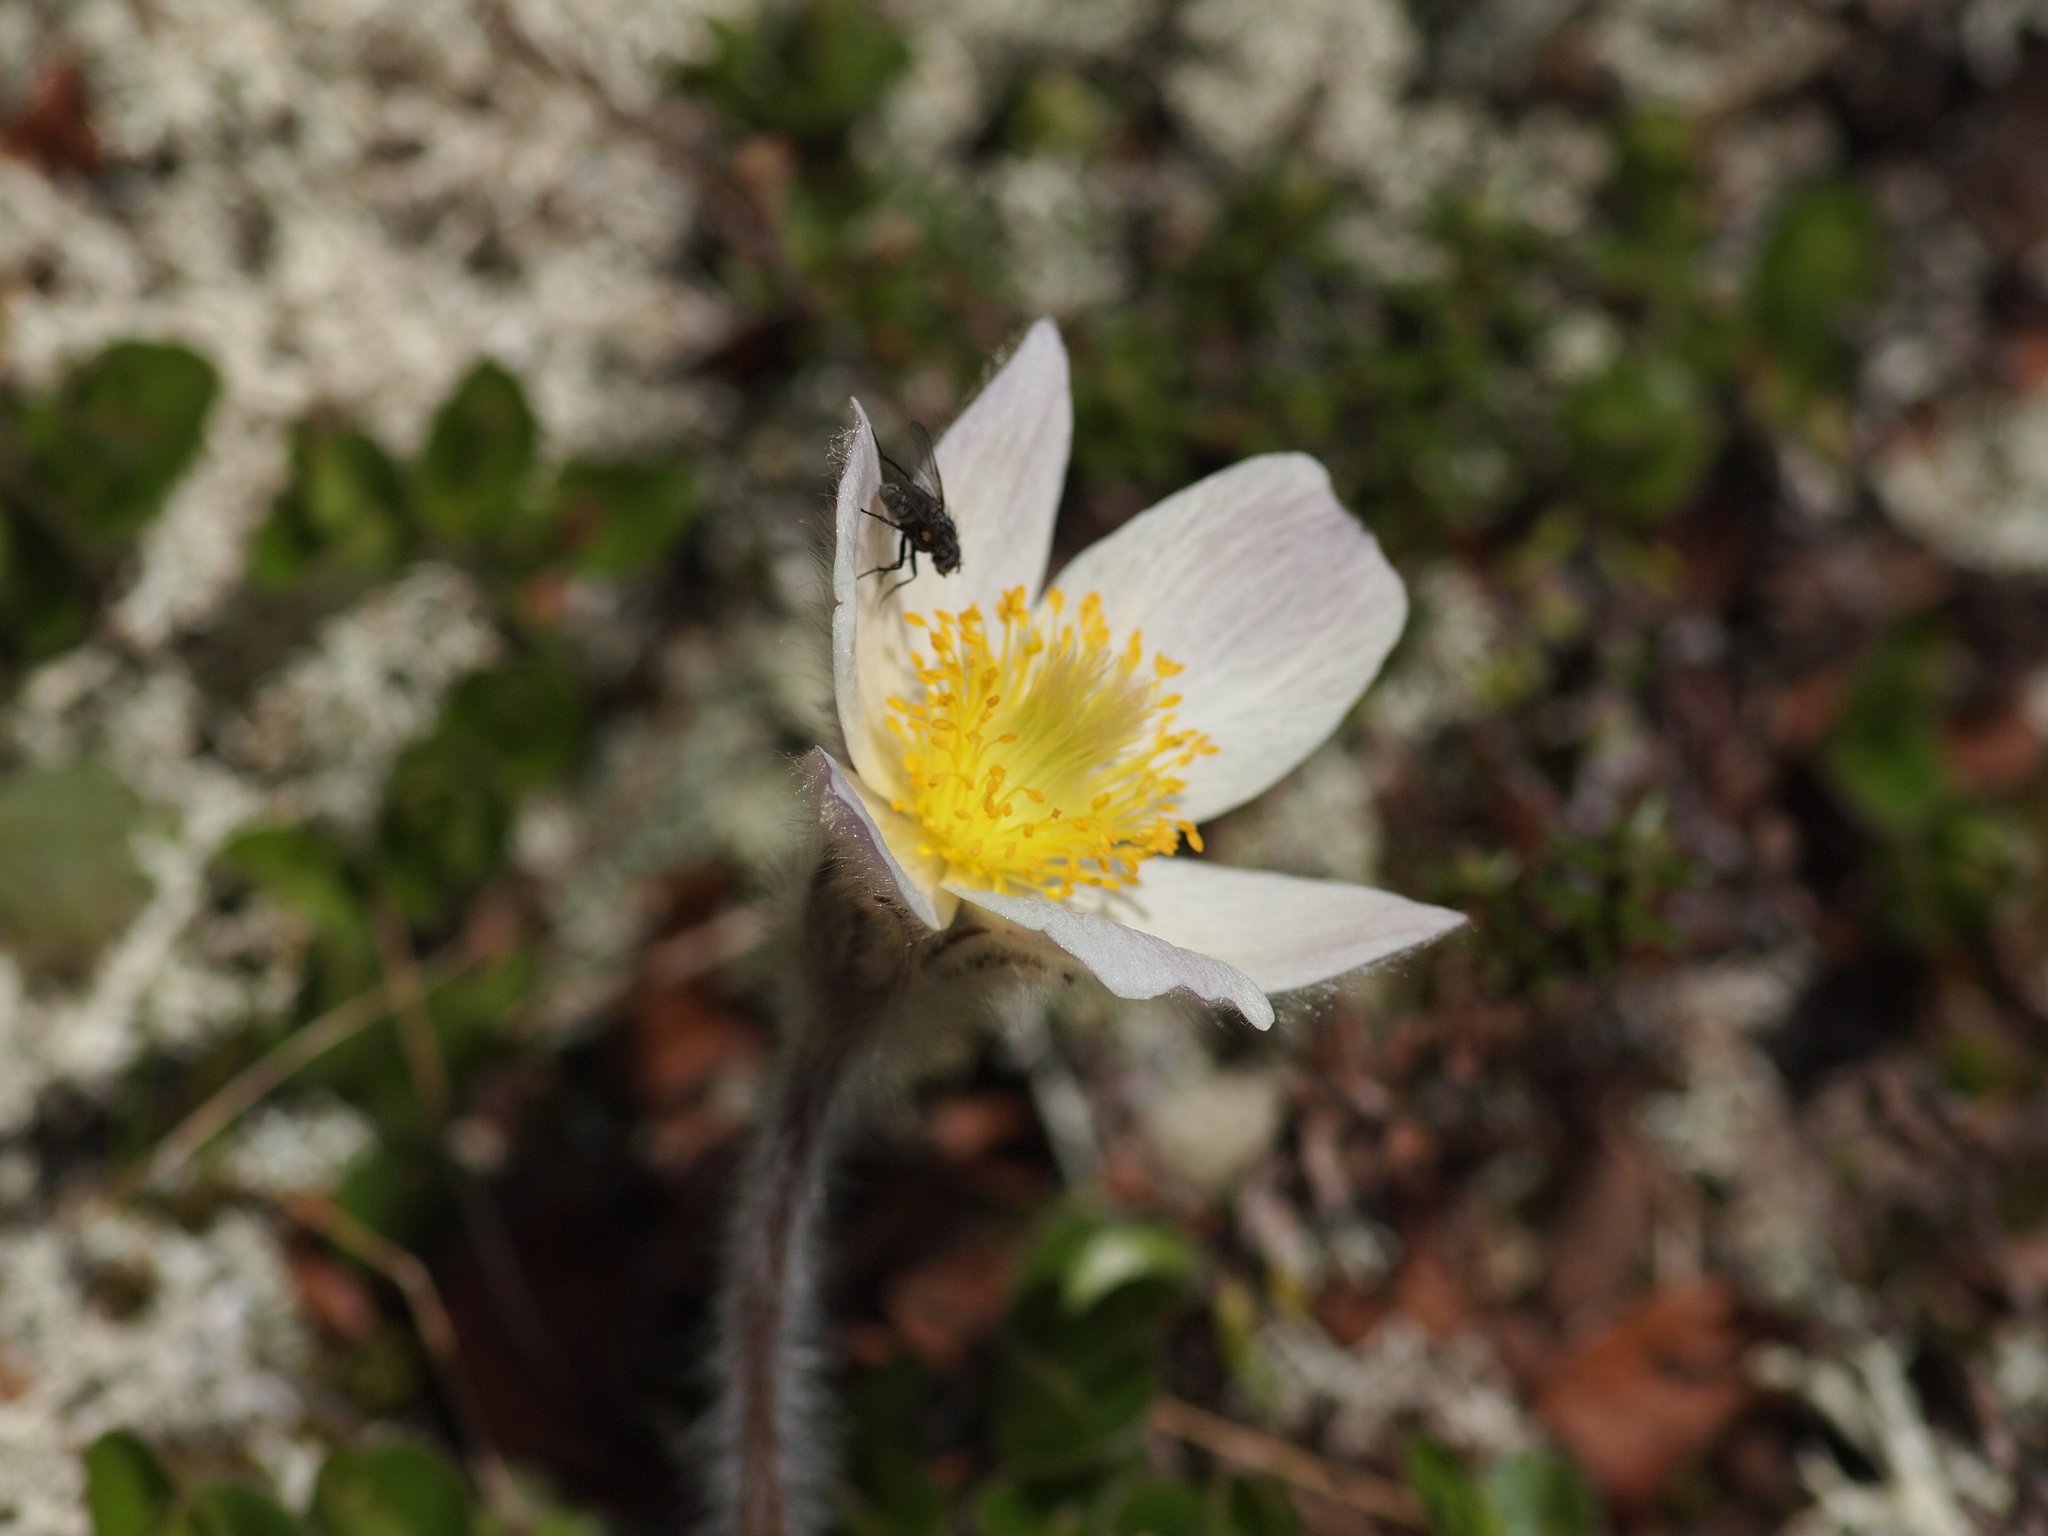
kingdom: Plantae
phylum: Tracheophyta
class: Magnoliopsida
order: Ranunculales
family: Ranunculaceae
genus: Pulsatilla
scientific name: Pulsatilla vernalis
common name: Spring pasque flower
